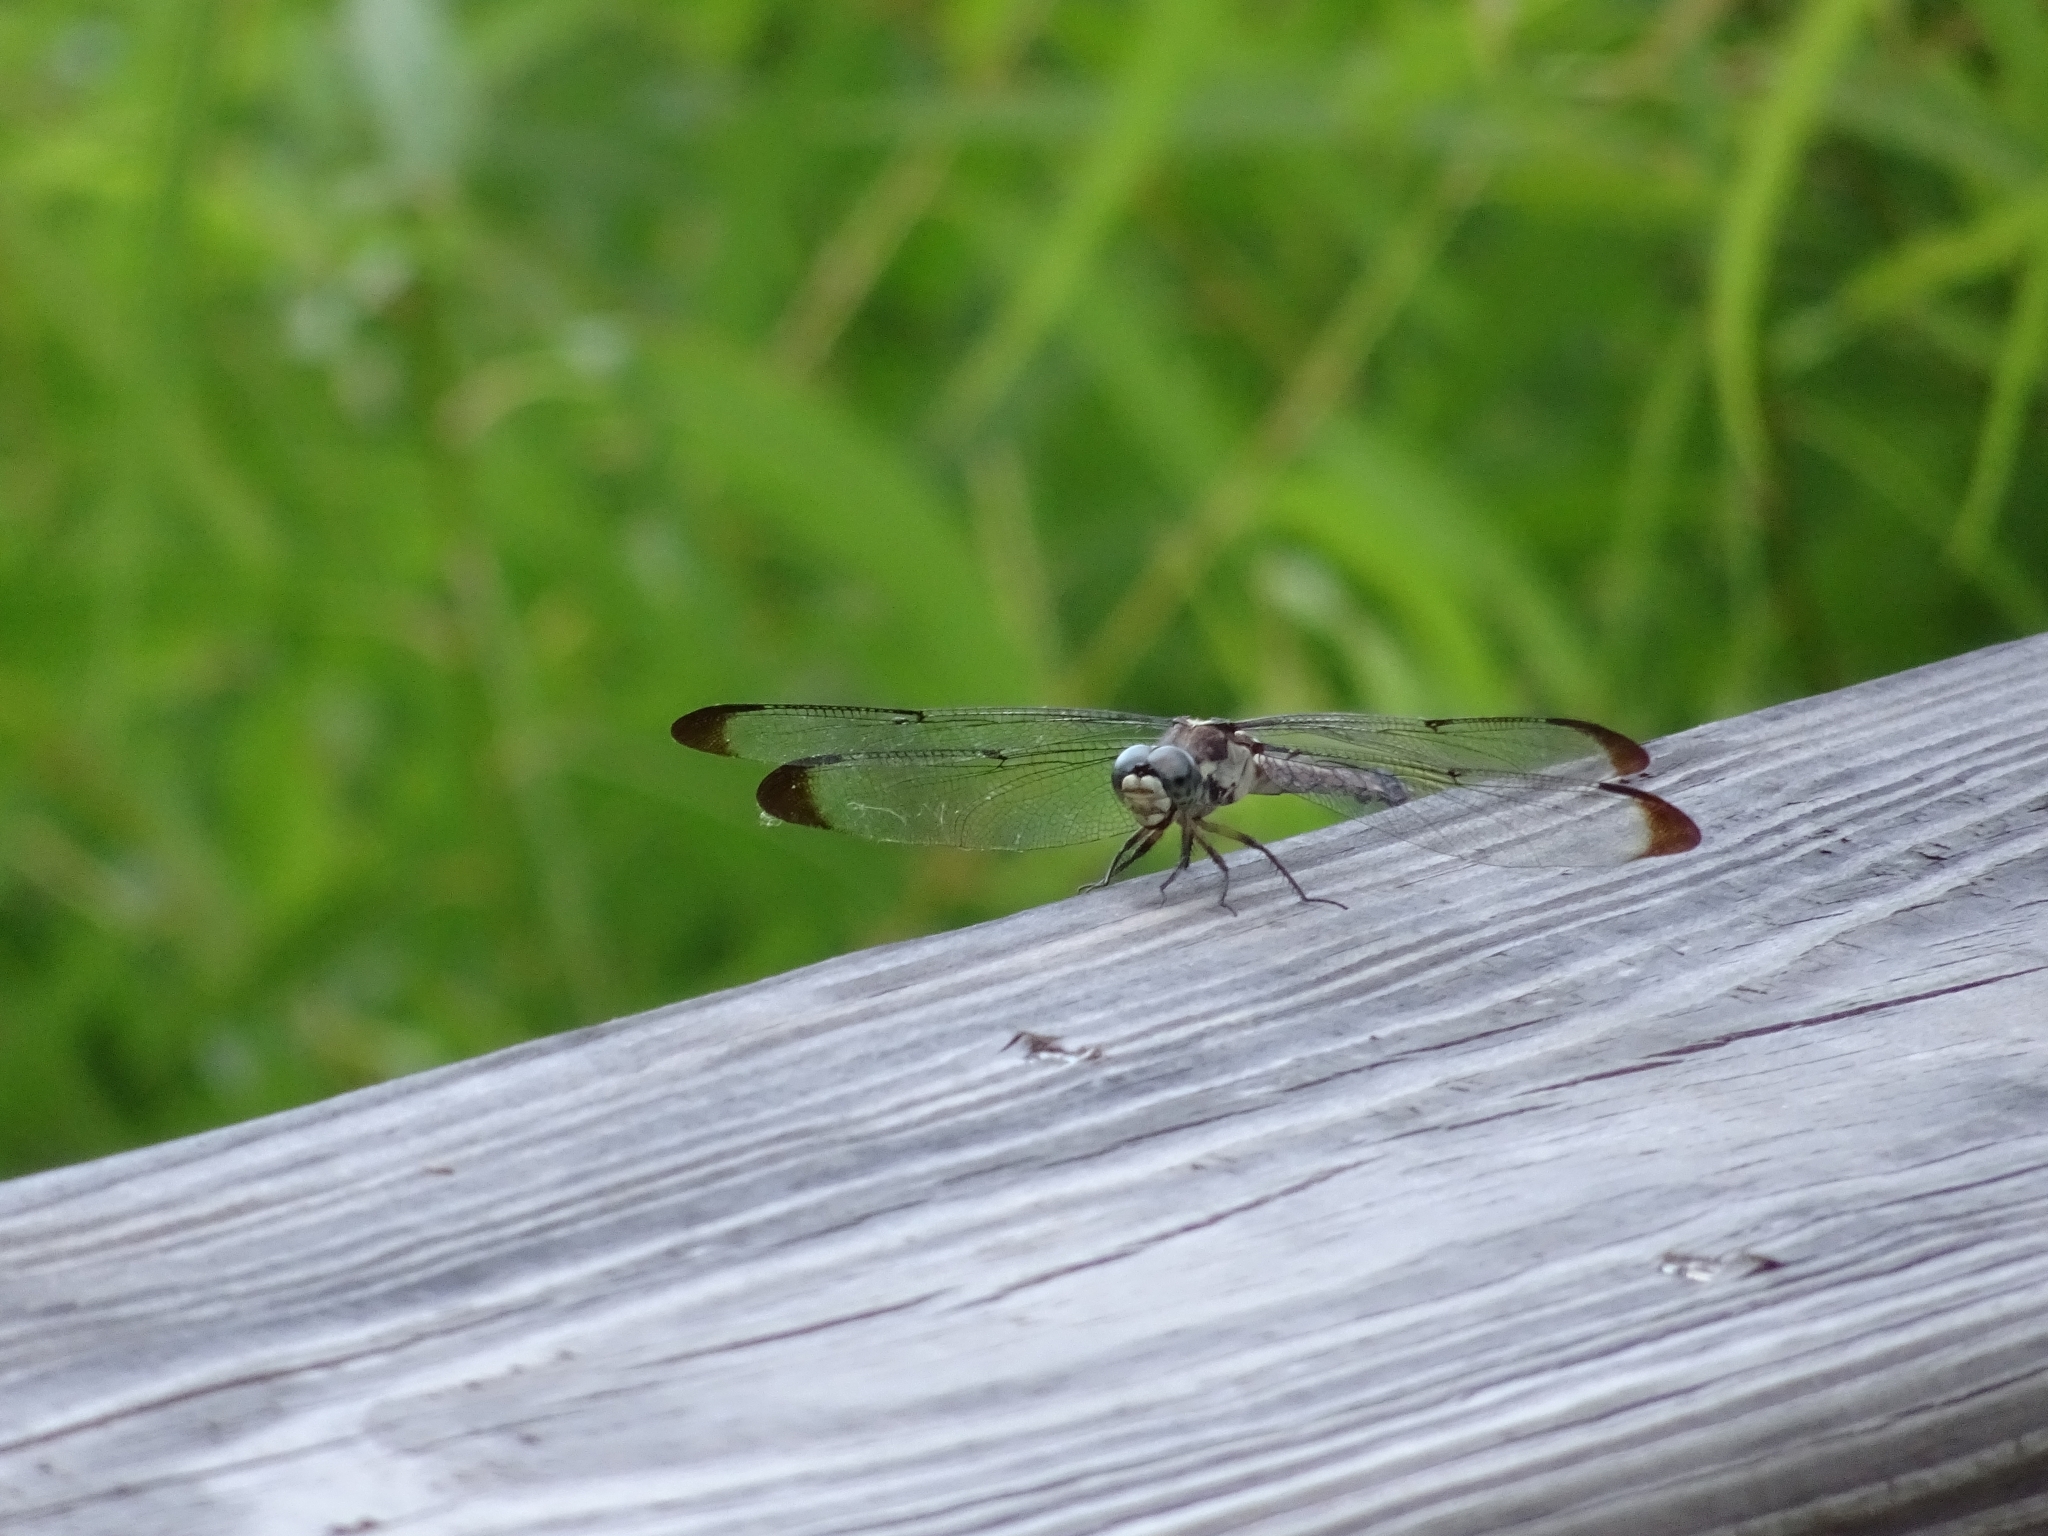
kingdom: Animalia
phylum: Arthropoda
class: Insecta
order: Odonata
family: Libellulidae
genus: Libellula
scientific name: Libellula vibrans
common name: Great blue skimmer
